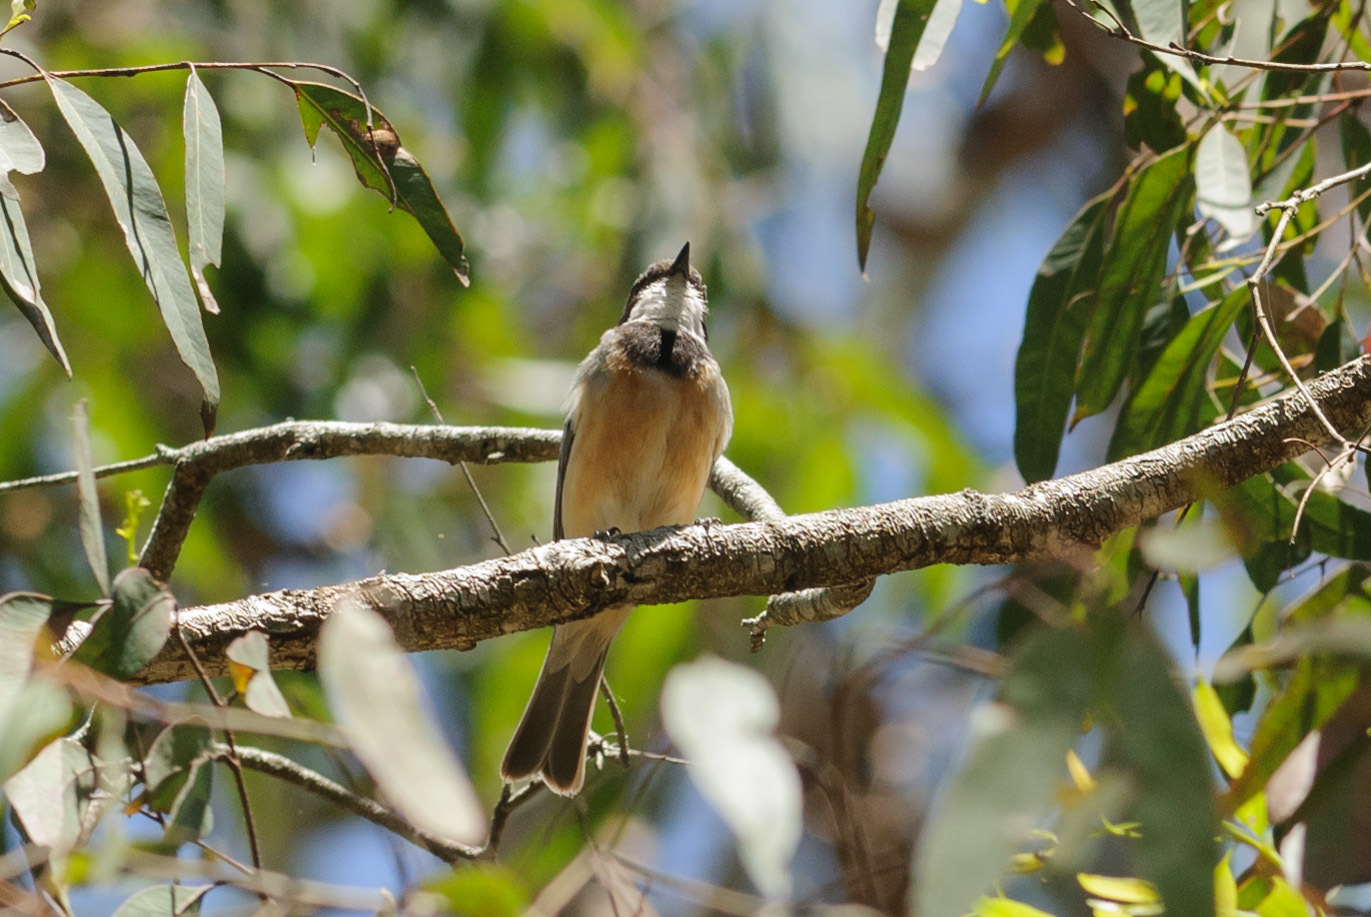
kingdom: Animalia
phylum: Chordata
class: Aves
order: Passeriformes
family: Pachycephalidae
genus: Pachycephala
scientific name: Pachycephala rufiventris
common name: Rufous whistler
